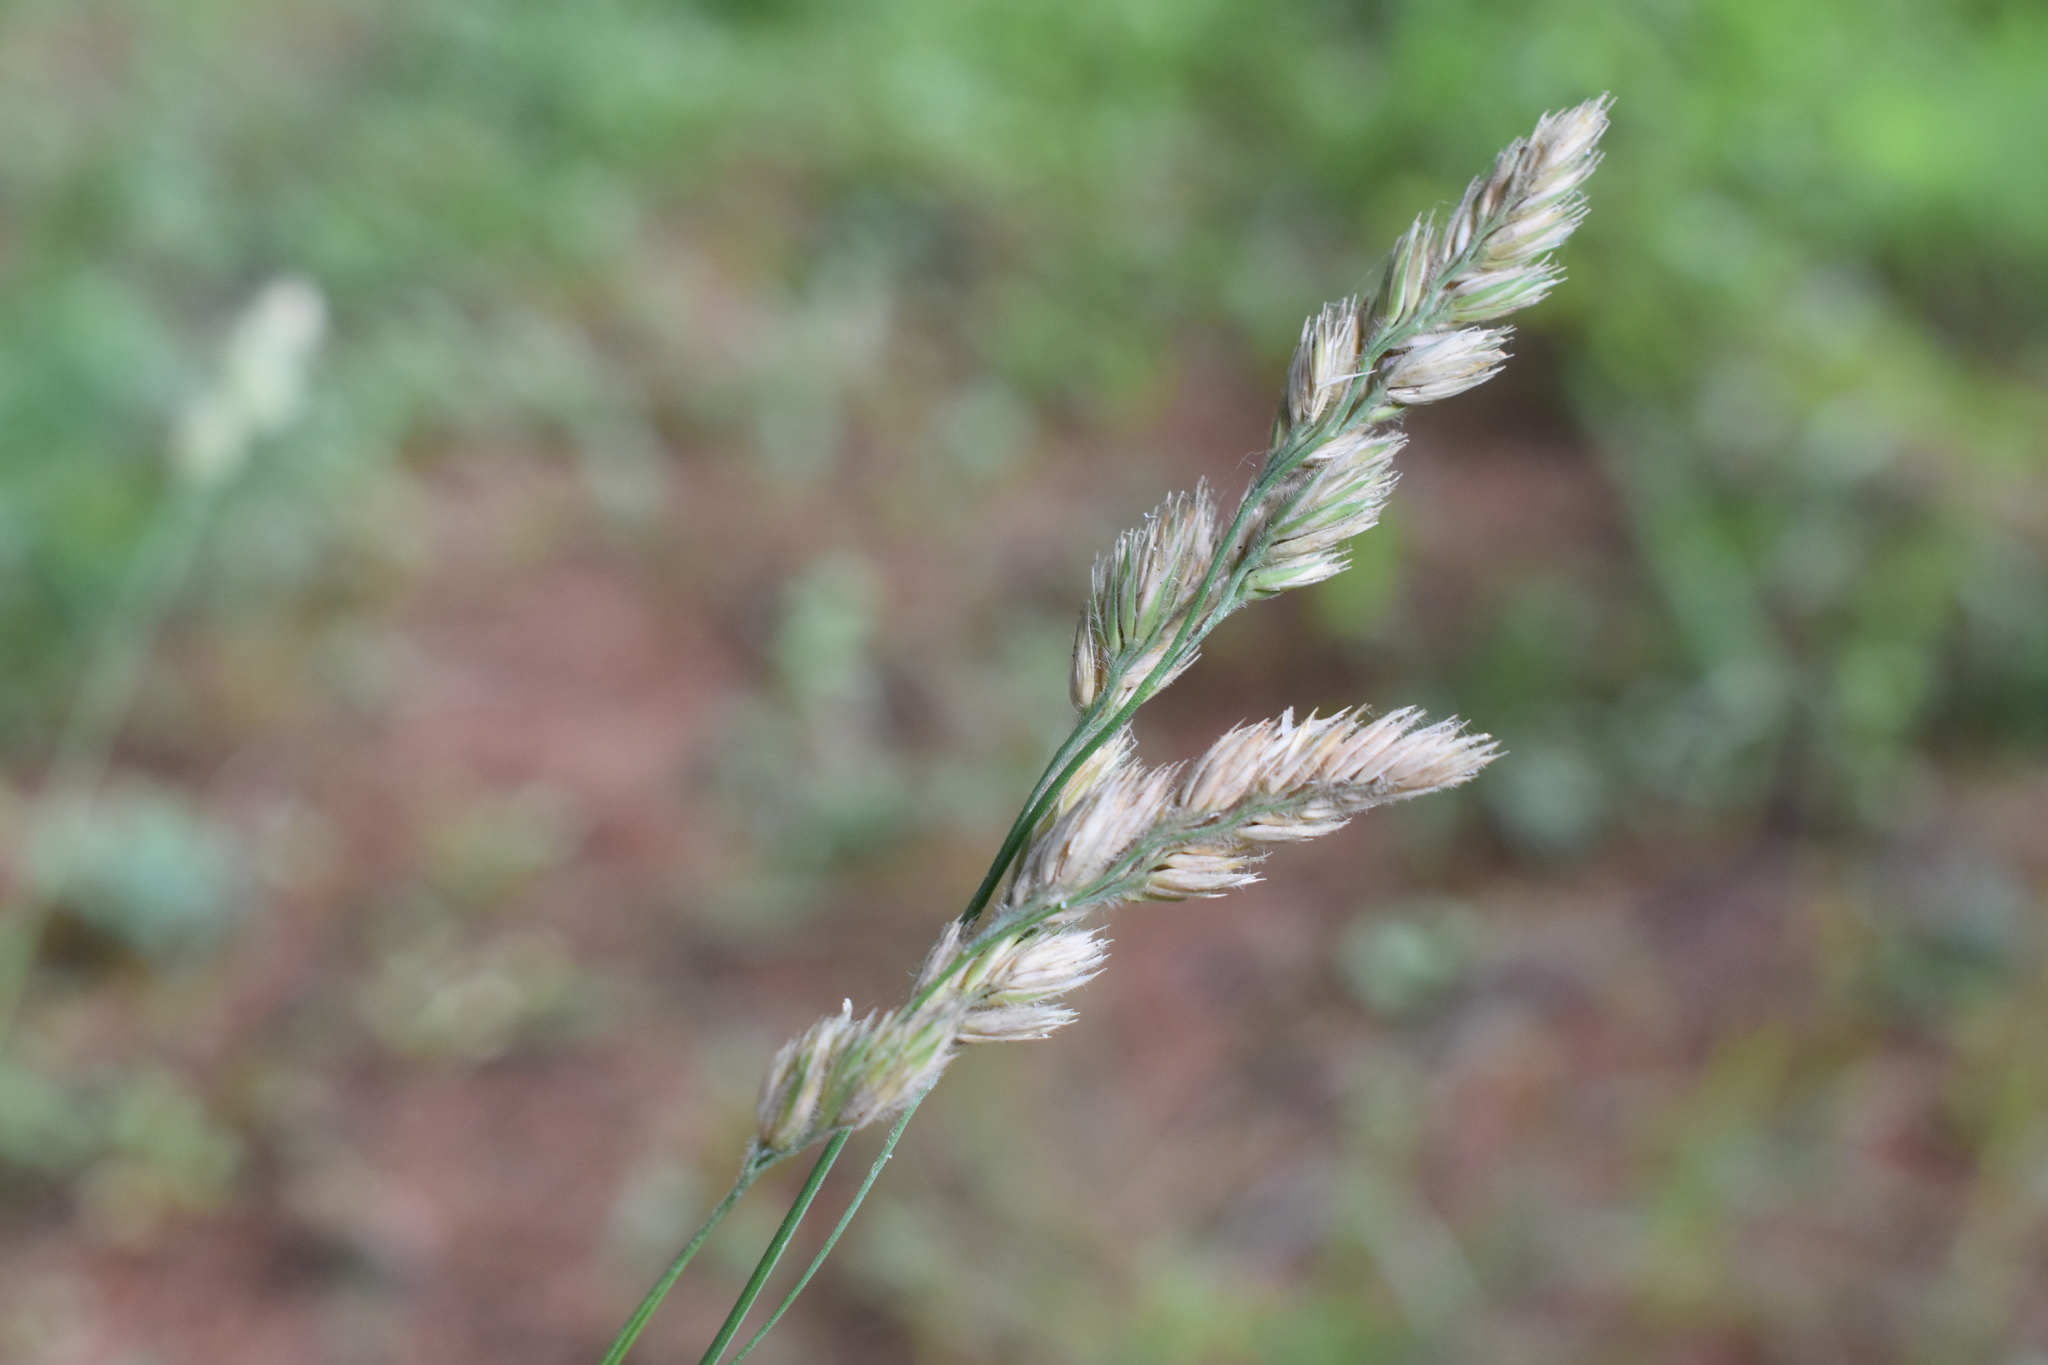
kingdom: Plantae
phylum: Tracheophyta
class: Liliopsida
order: Poales
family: Poaceae
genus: Dactylis
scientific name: Dactylis glomerata
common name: Orchardgrass
